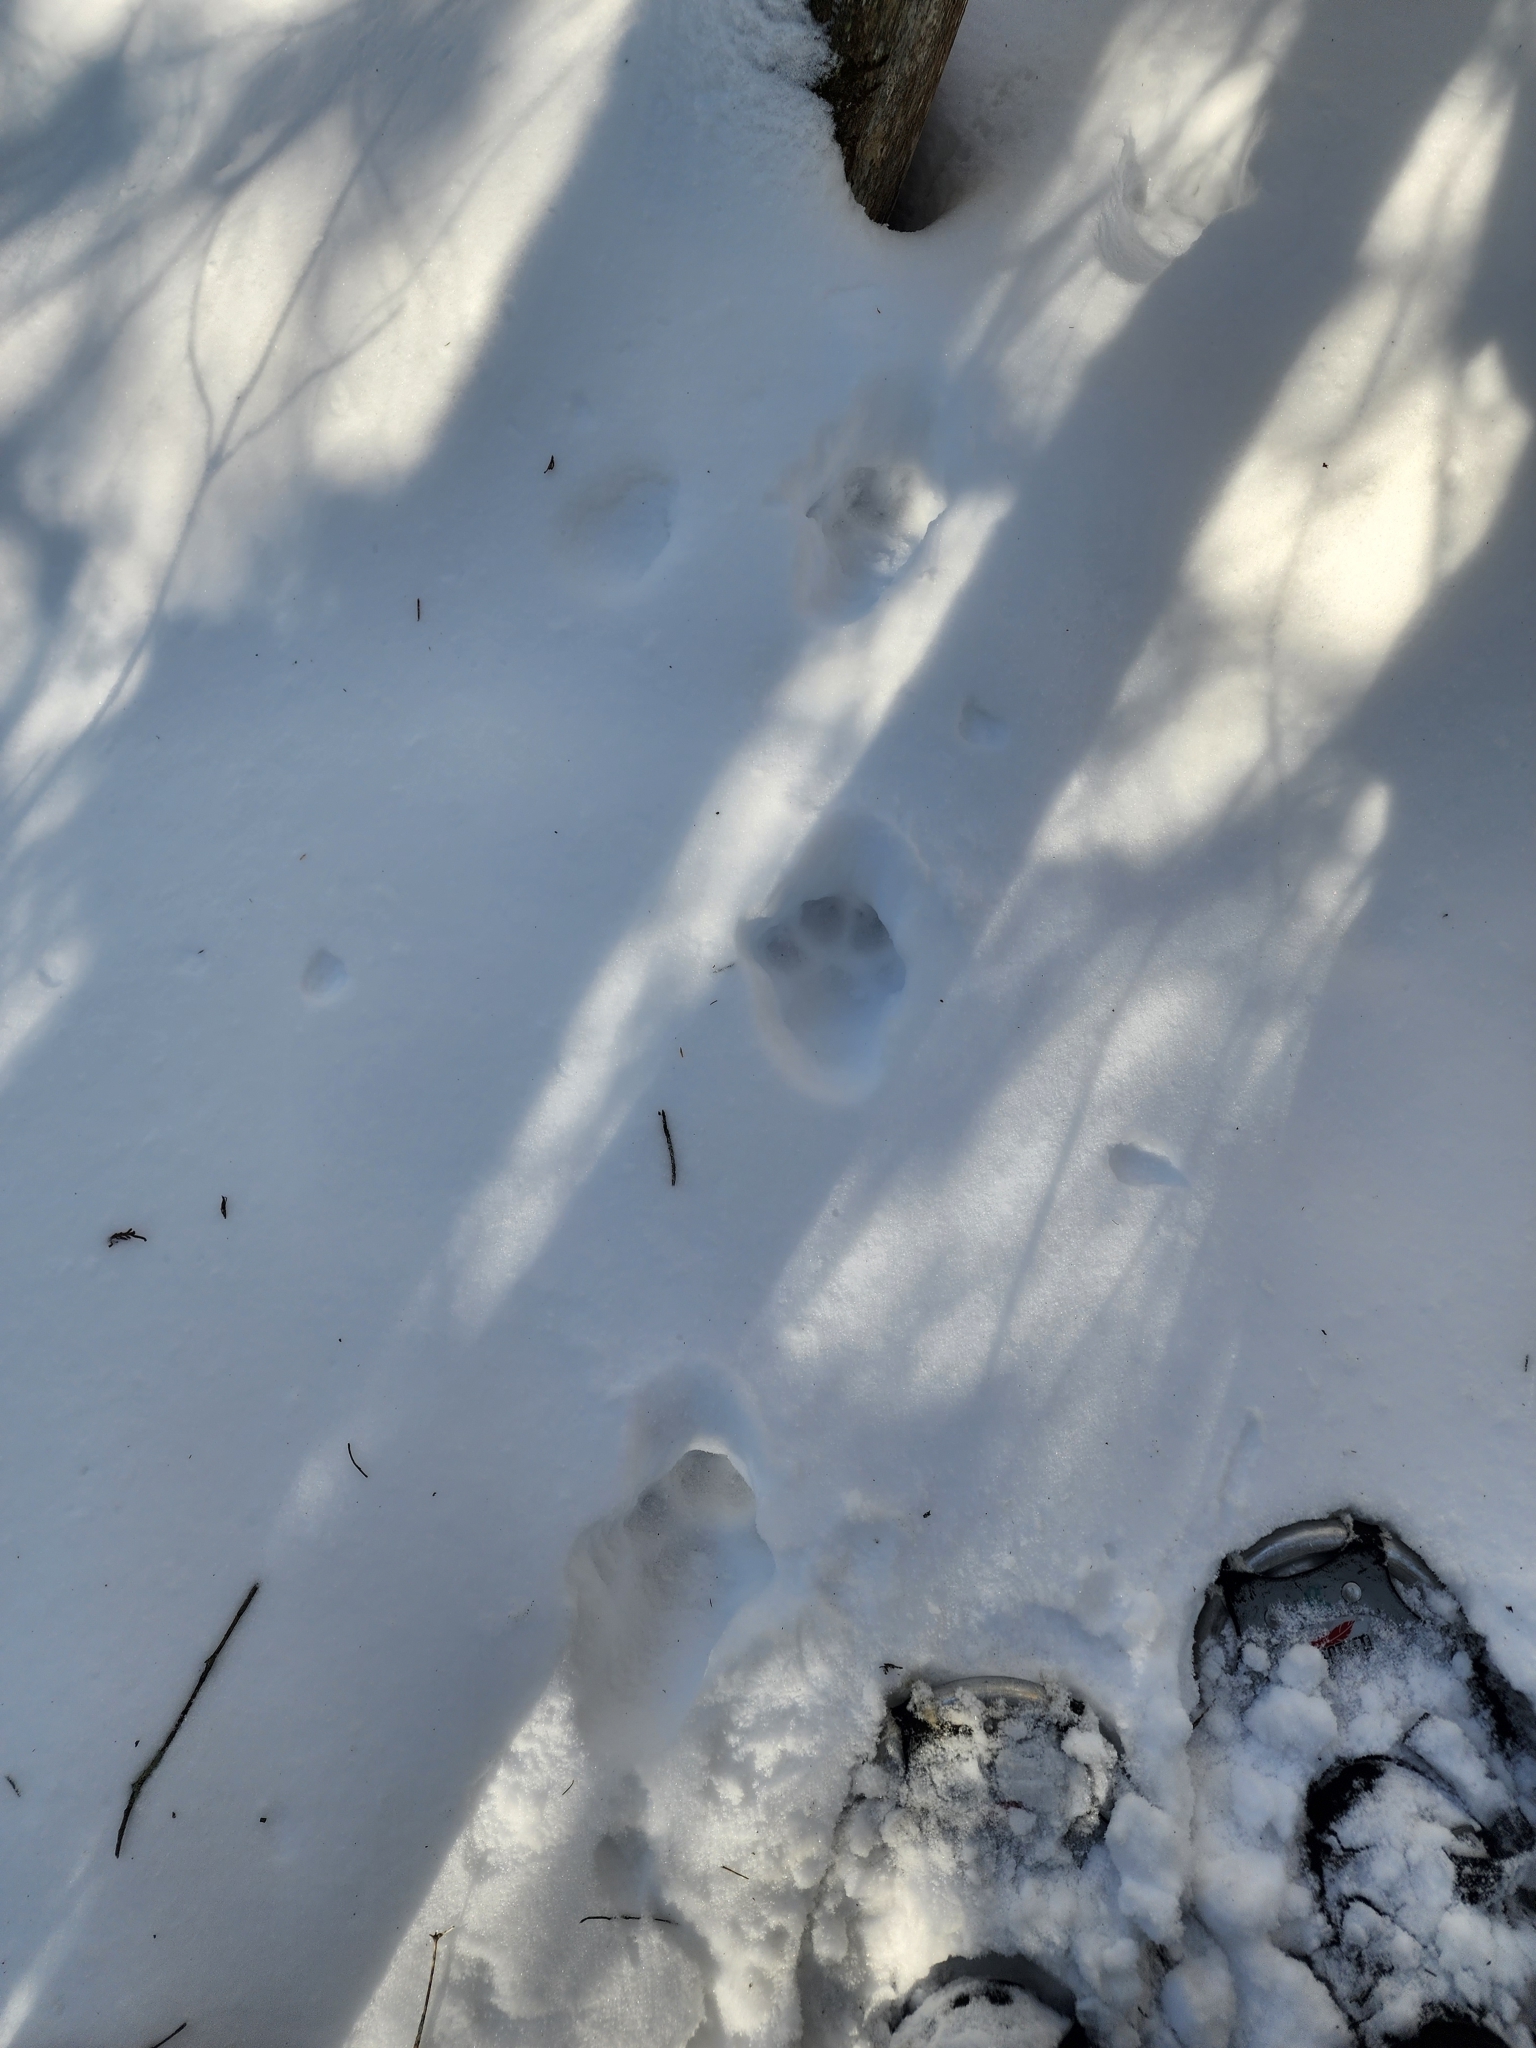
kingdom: Animalia
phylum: Chordata
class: Mammalia
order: Carnivora
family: Felidae
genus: Lynx
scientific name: Lynx canadensis
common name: Canadian lynx
